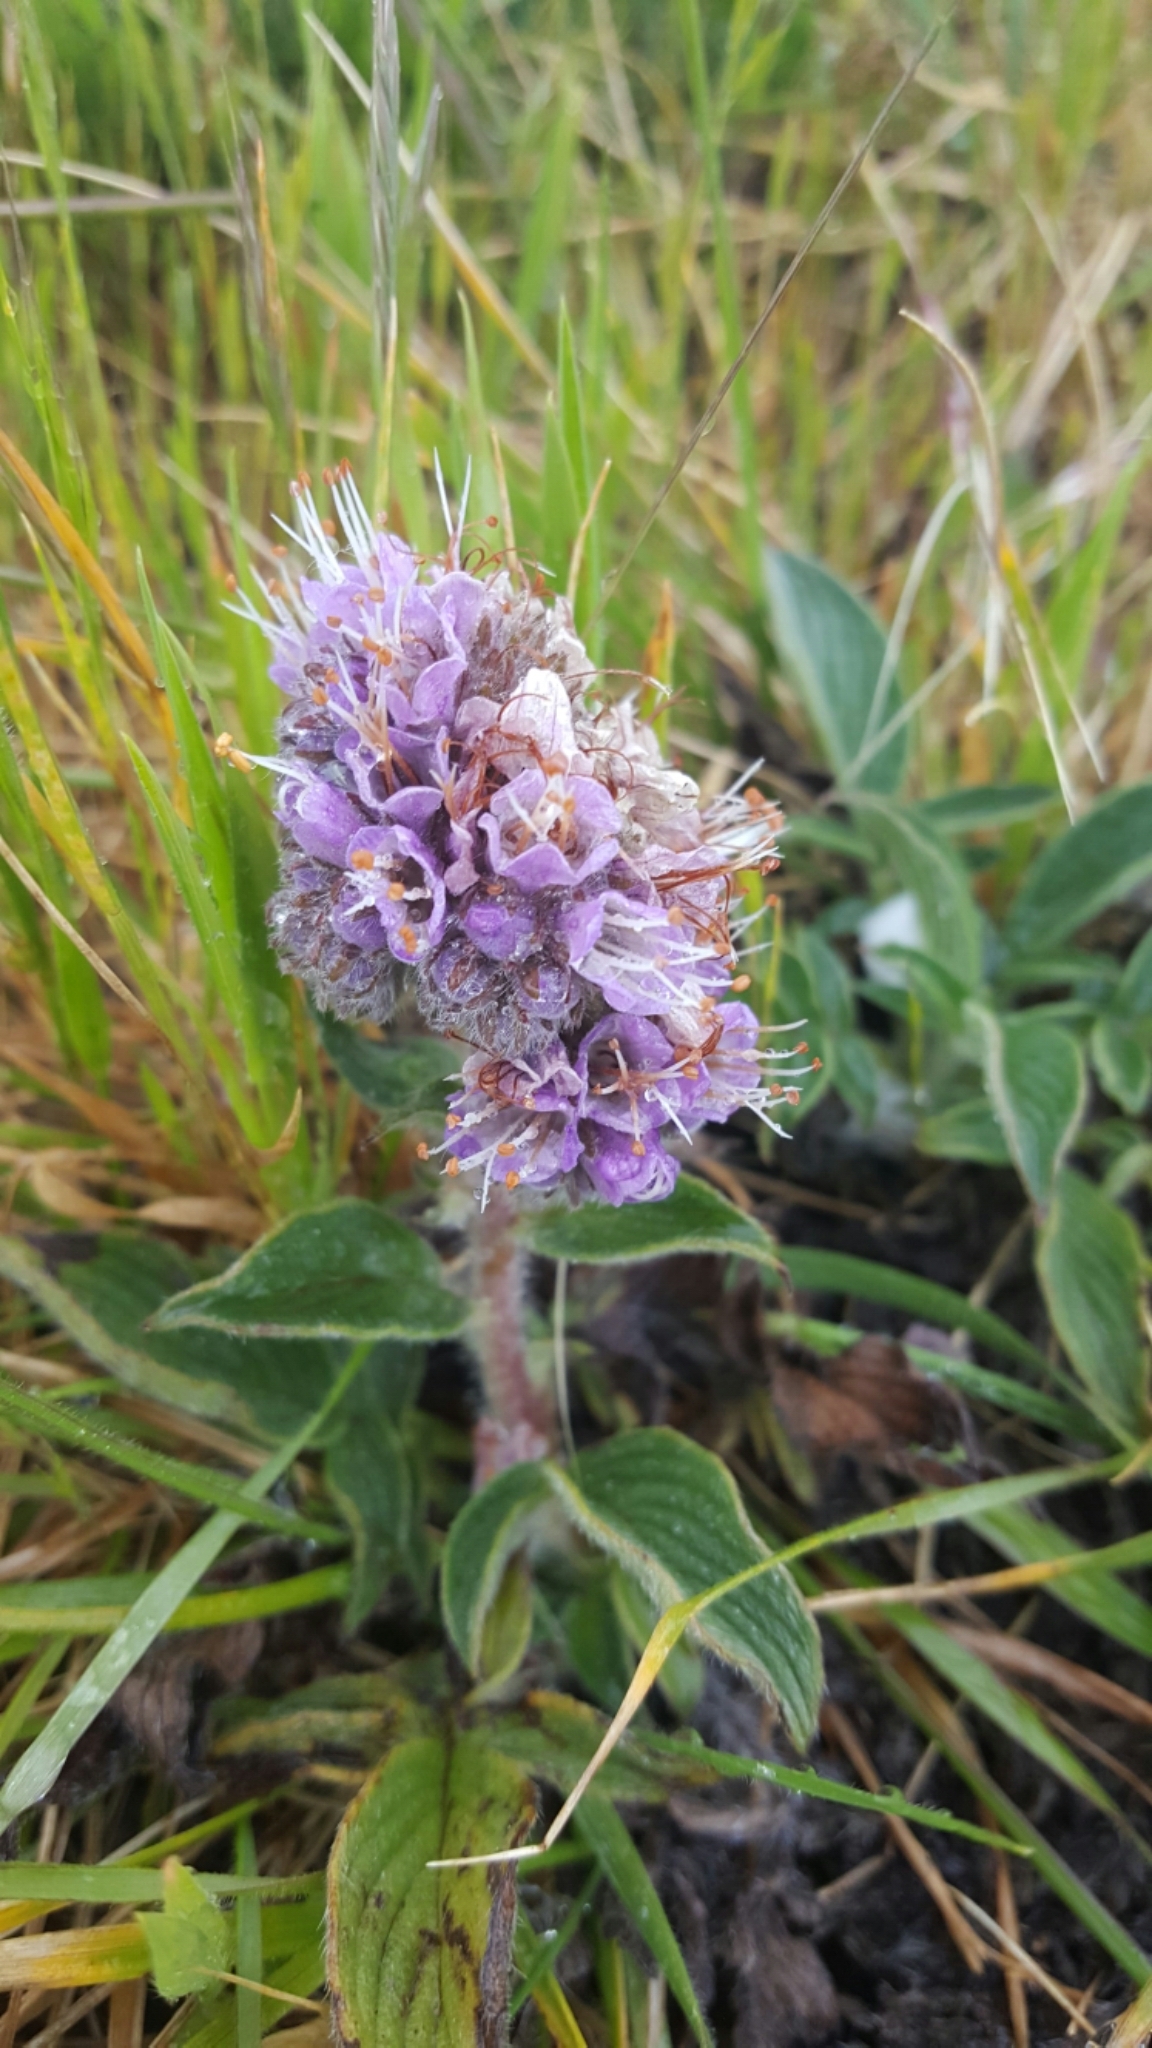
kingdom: Plantae
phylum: Tracheophyta
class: Magnoliopsida
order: Boraginales
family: Hydrophyllaceae
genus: Phacelia
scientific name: Phacelia californica
